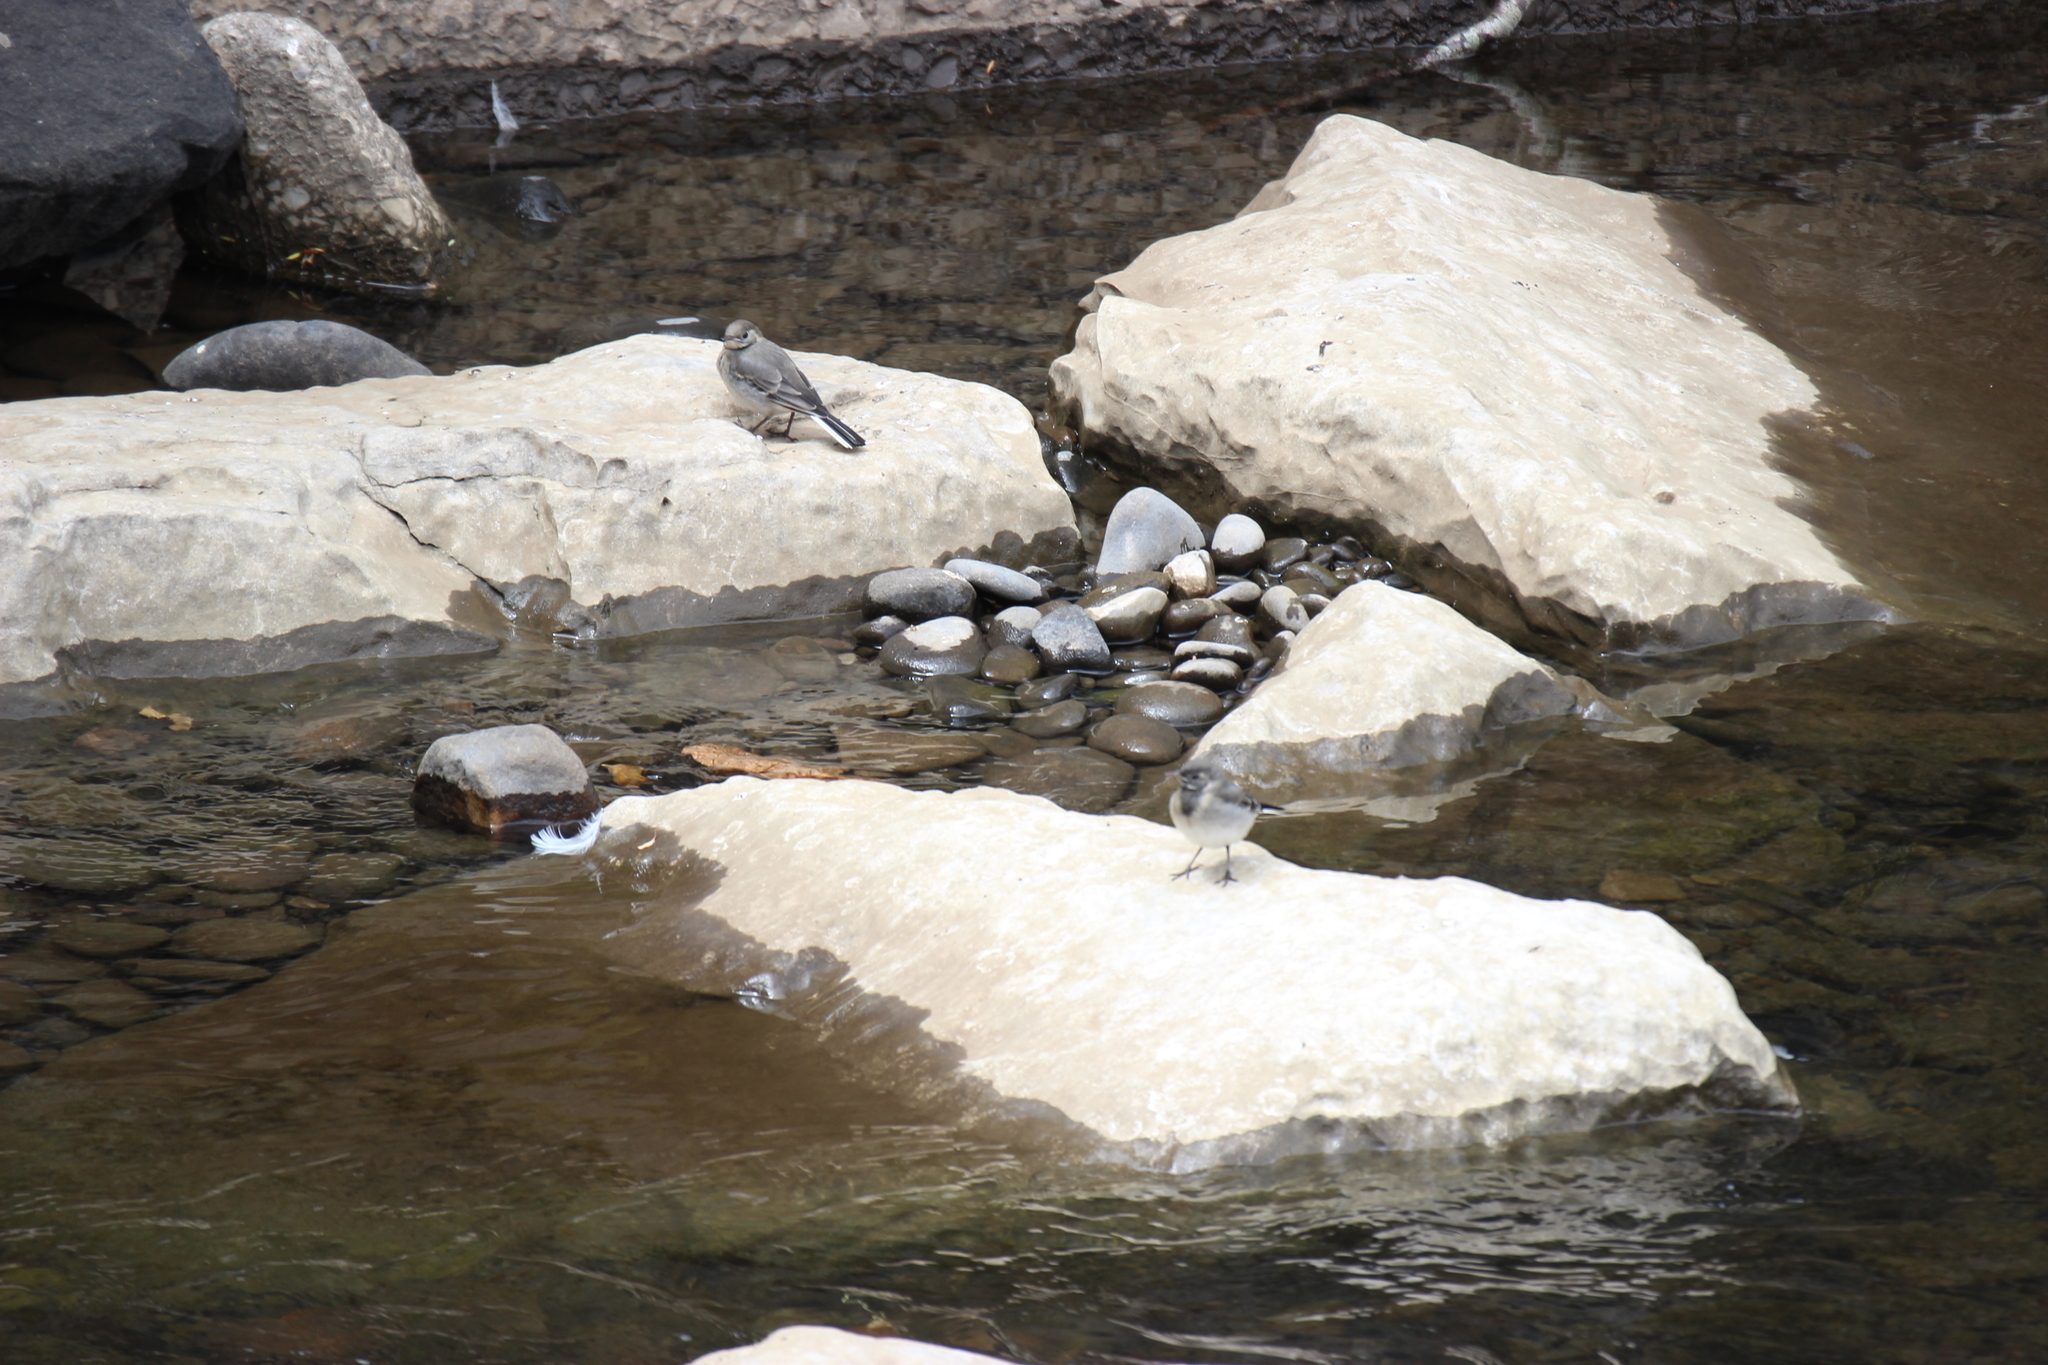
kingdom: Animalia
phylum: Chordata
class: Aves
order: Passeriformes
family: Motacillidae
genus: Motacilla
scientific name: Motacilla alba
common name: White wagtail
